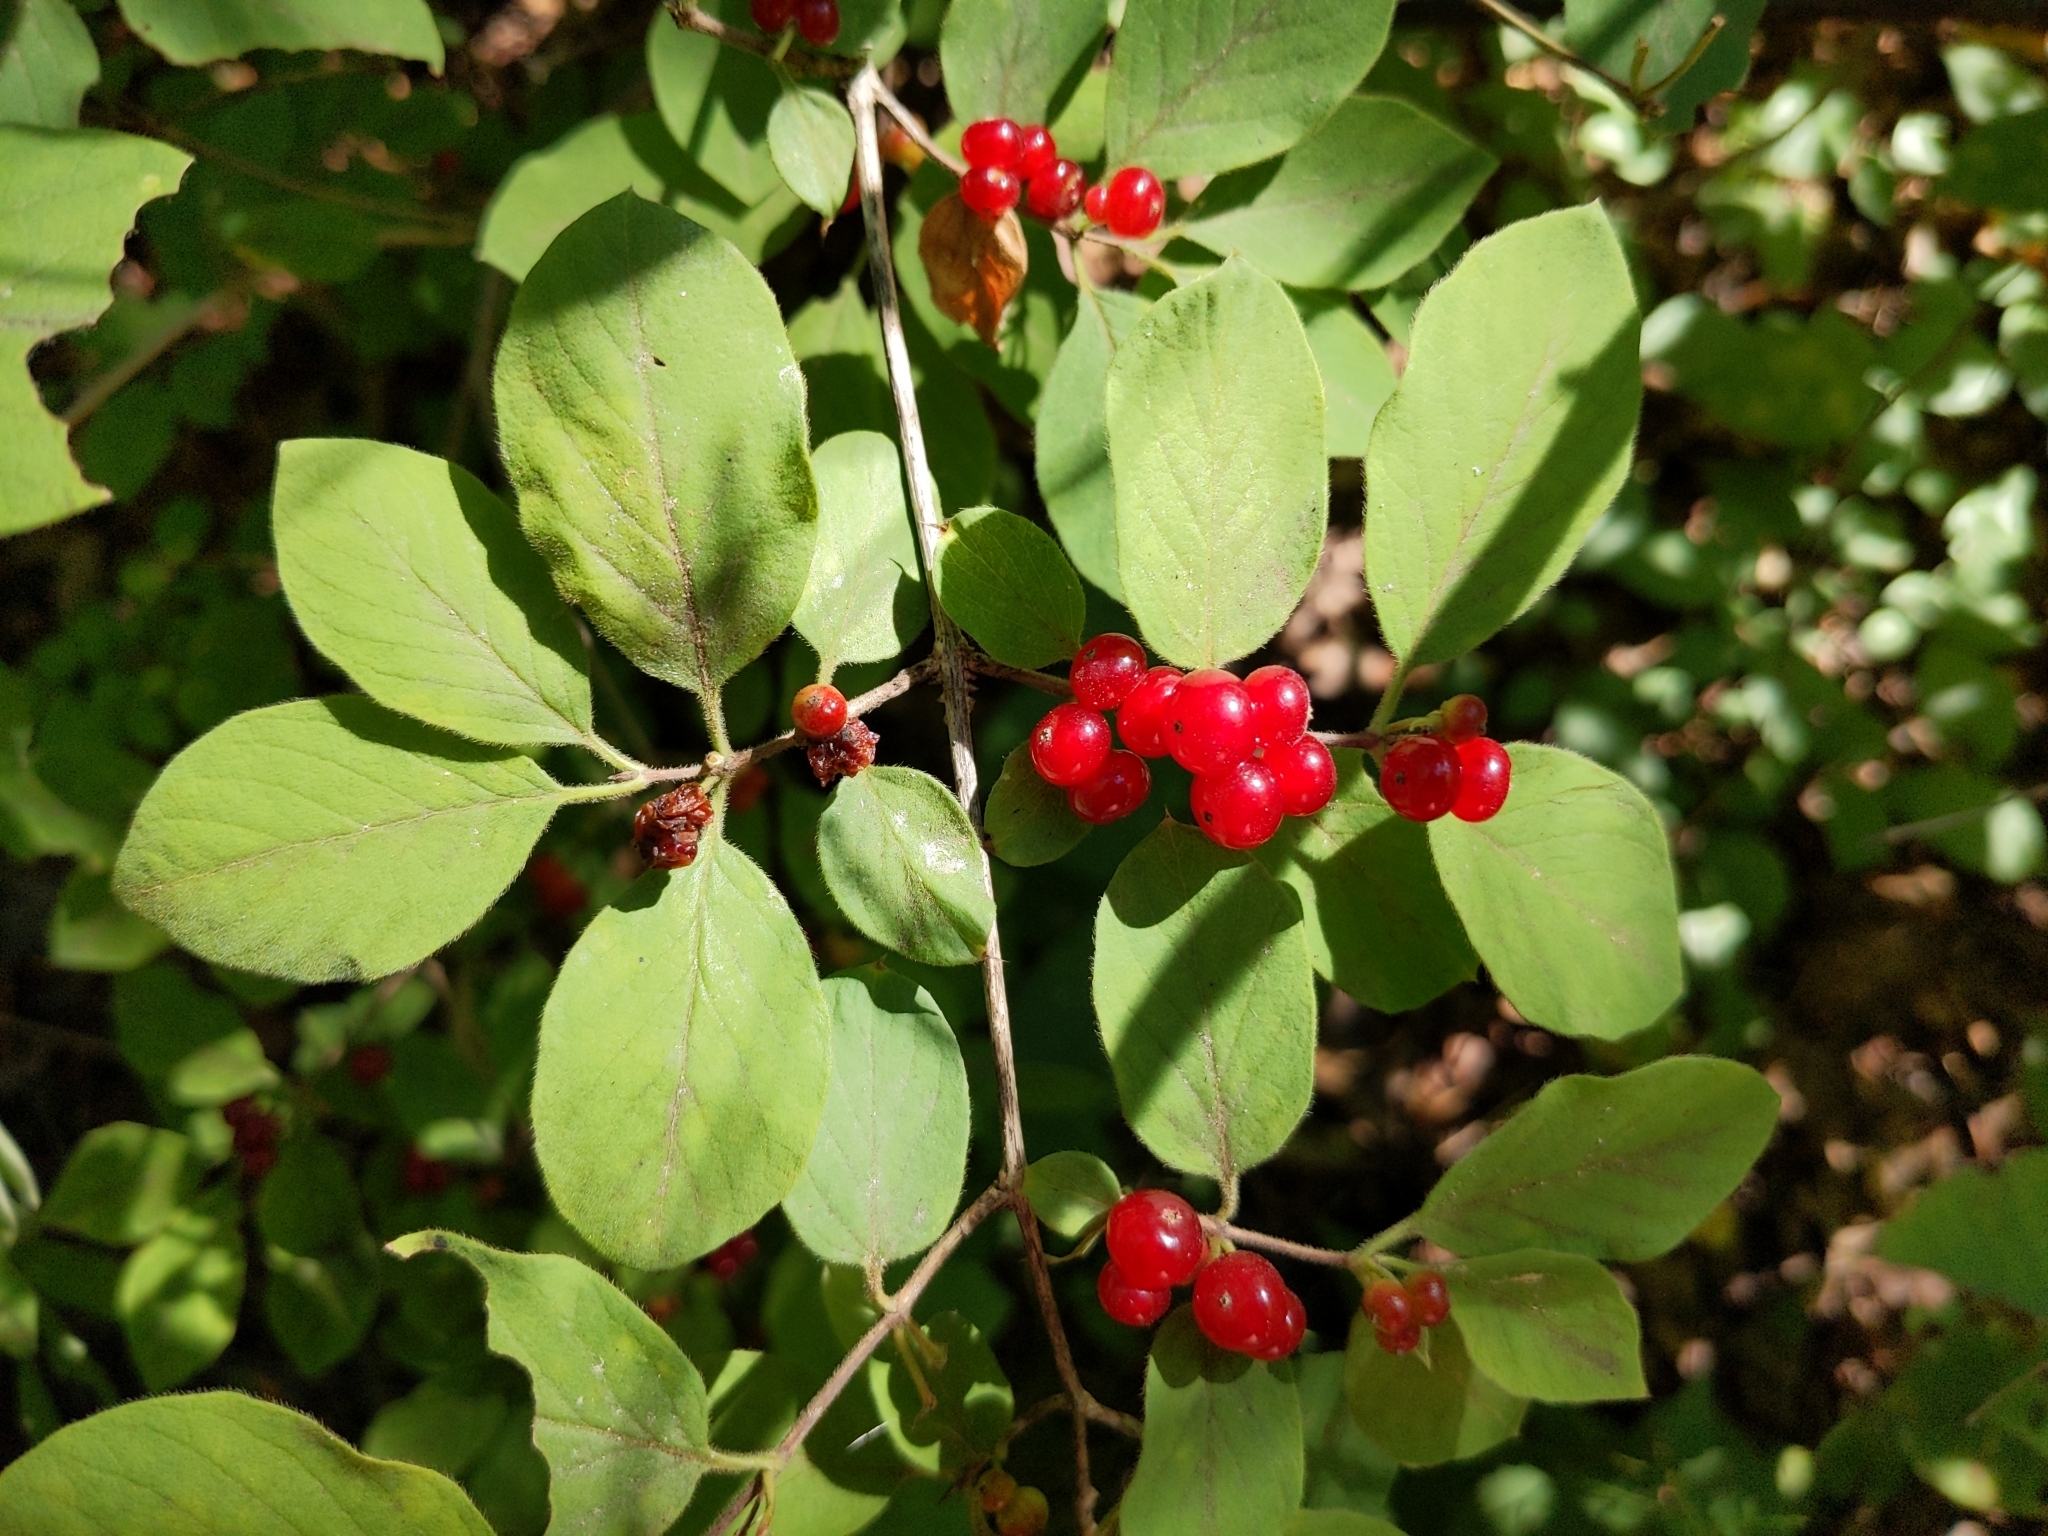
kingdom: Plantae
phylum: Tracheophyta
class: Magnoliopsida
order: Dipsacales
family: Caprifoliaceae
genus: Lonicera
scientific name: Lonicera xylosteum
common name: Fly honeysuckle
